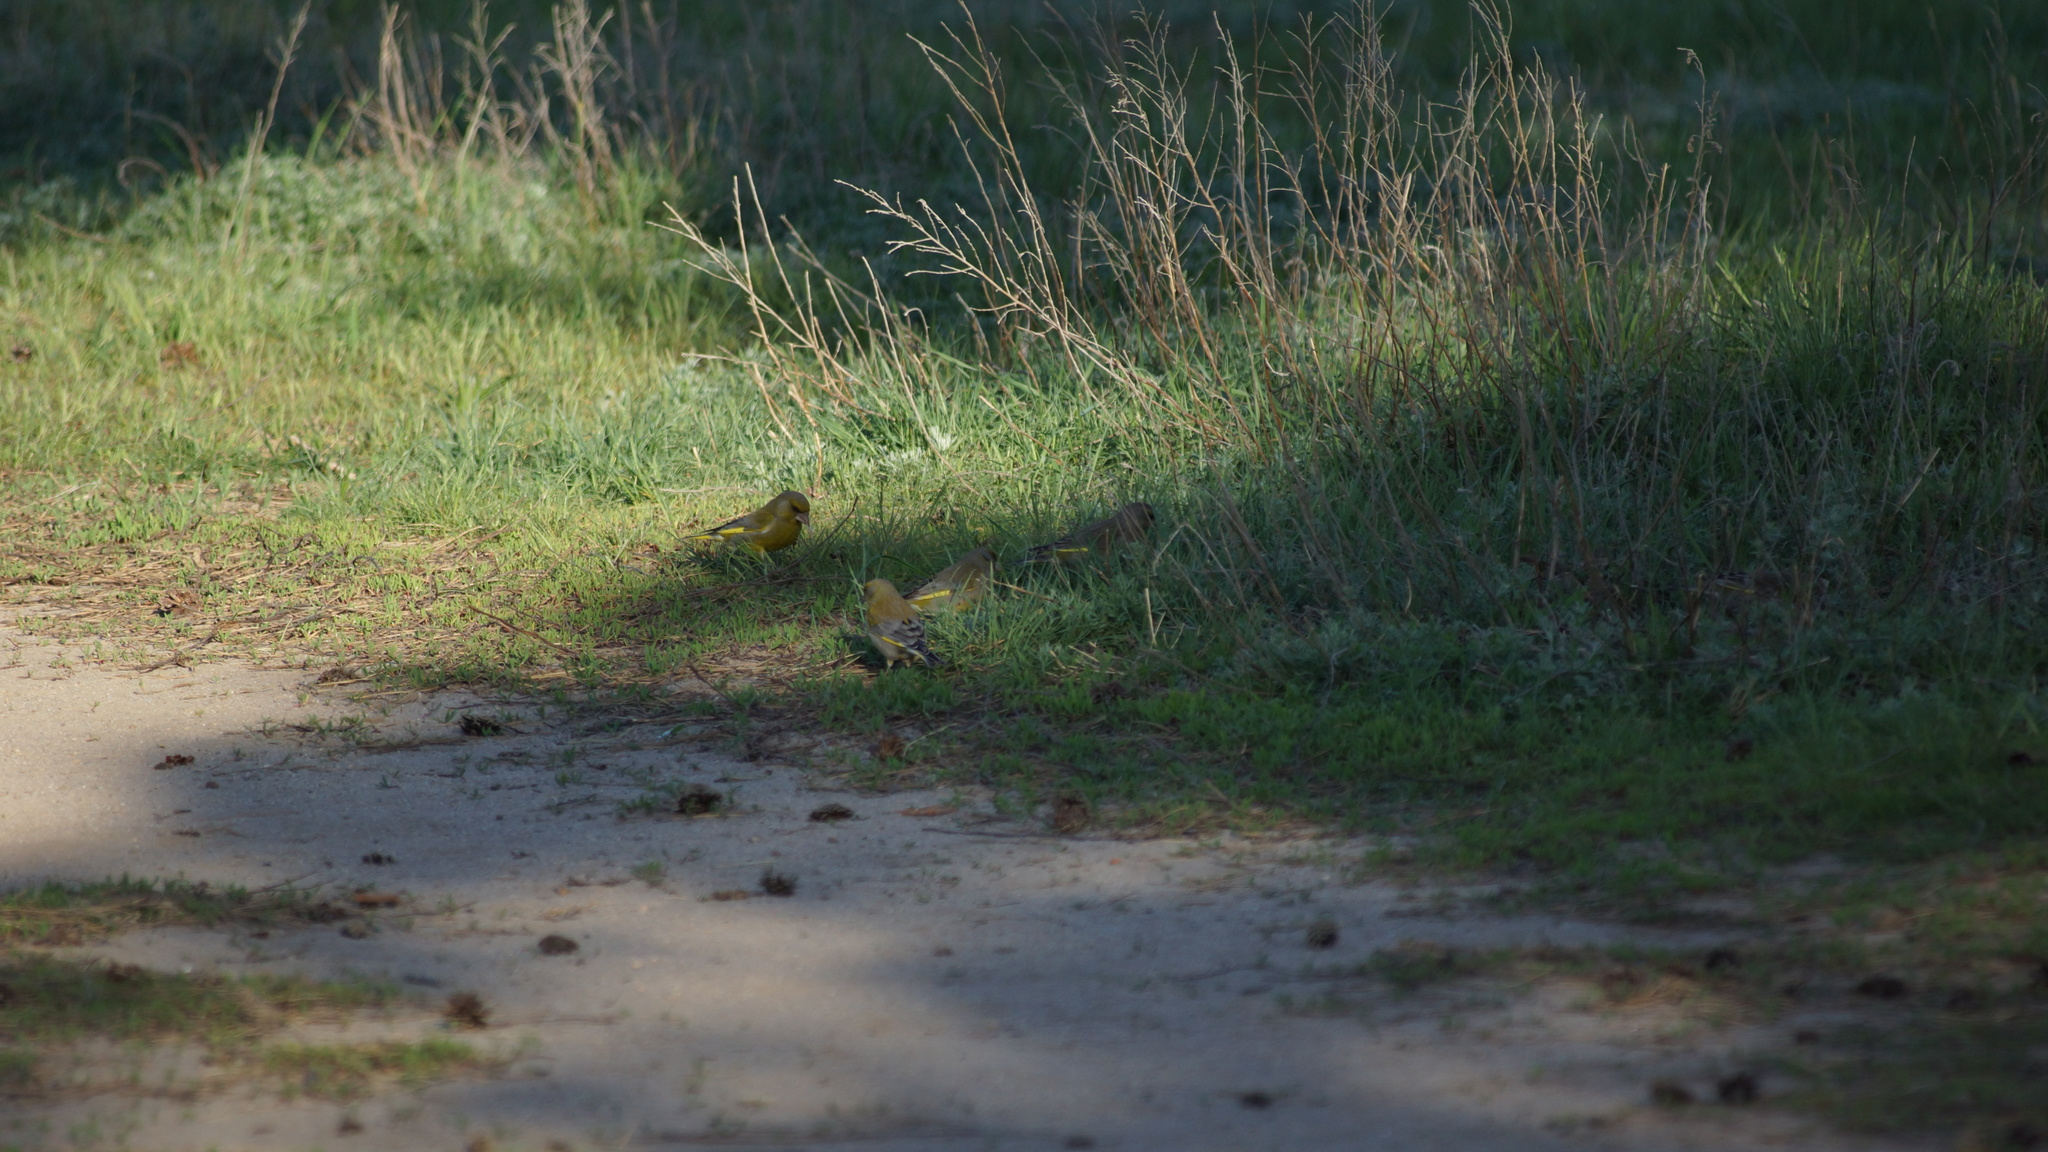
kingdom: Plantae
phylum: Tracheophyta
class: Liliopsida
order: Poales
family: Poaceae
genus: Chloris
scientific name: Chloris chloris
